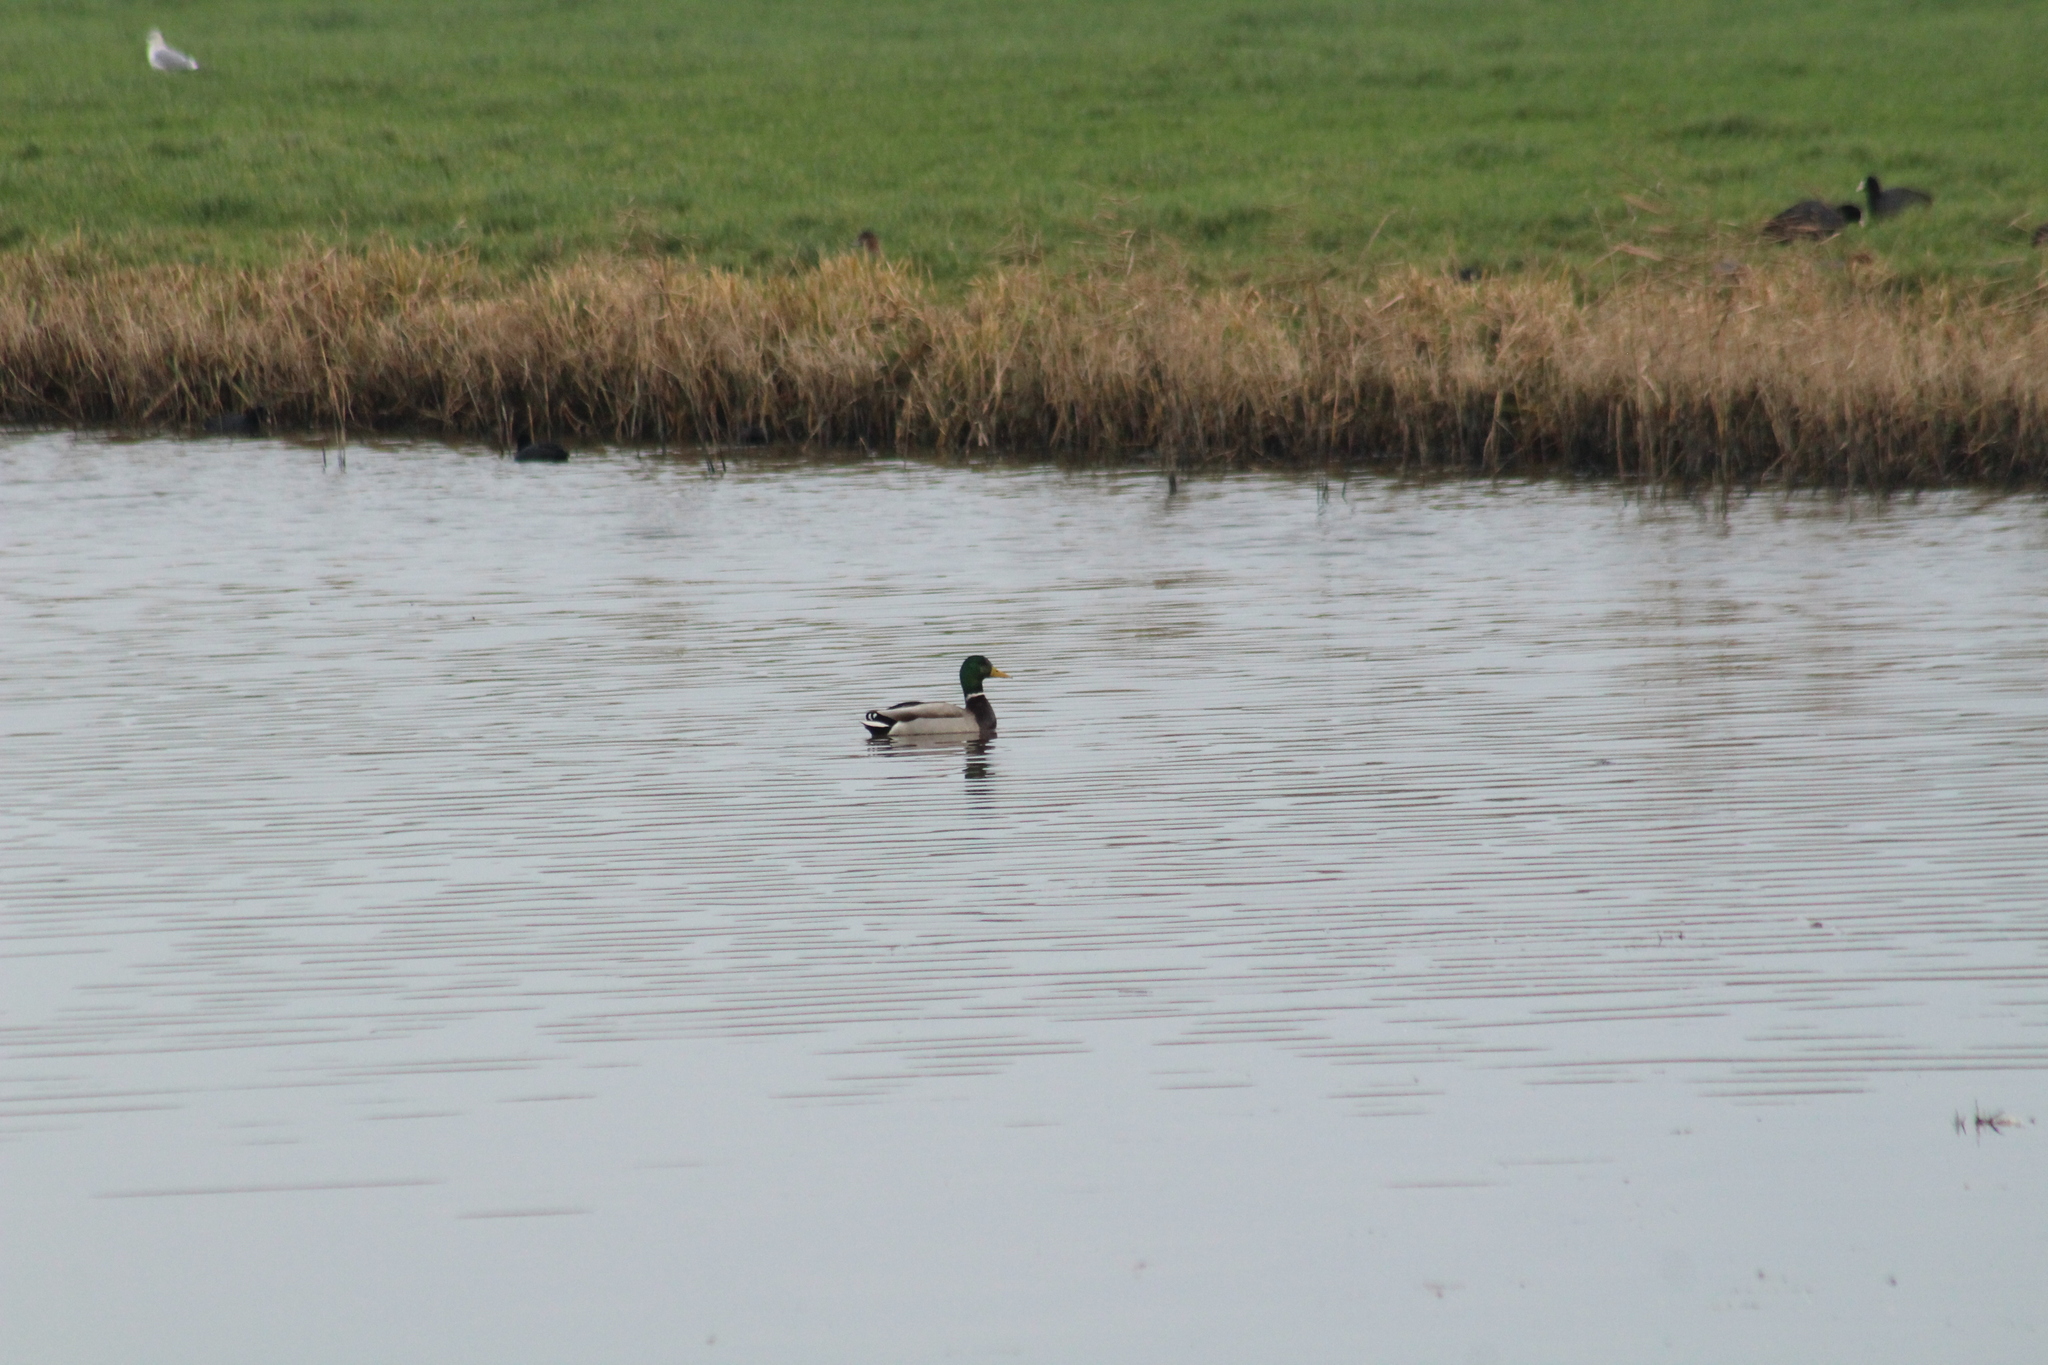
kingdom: Animalia
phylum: Chordata
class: Aves
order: Anseriformes
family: Anatidae
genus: Anas
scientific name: Anas platyrhynchos
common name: Mallard
